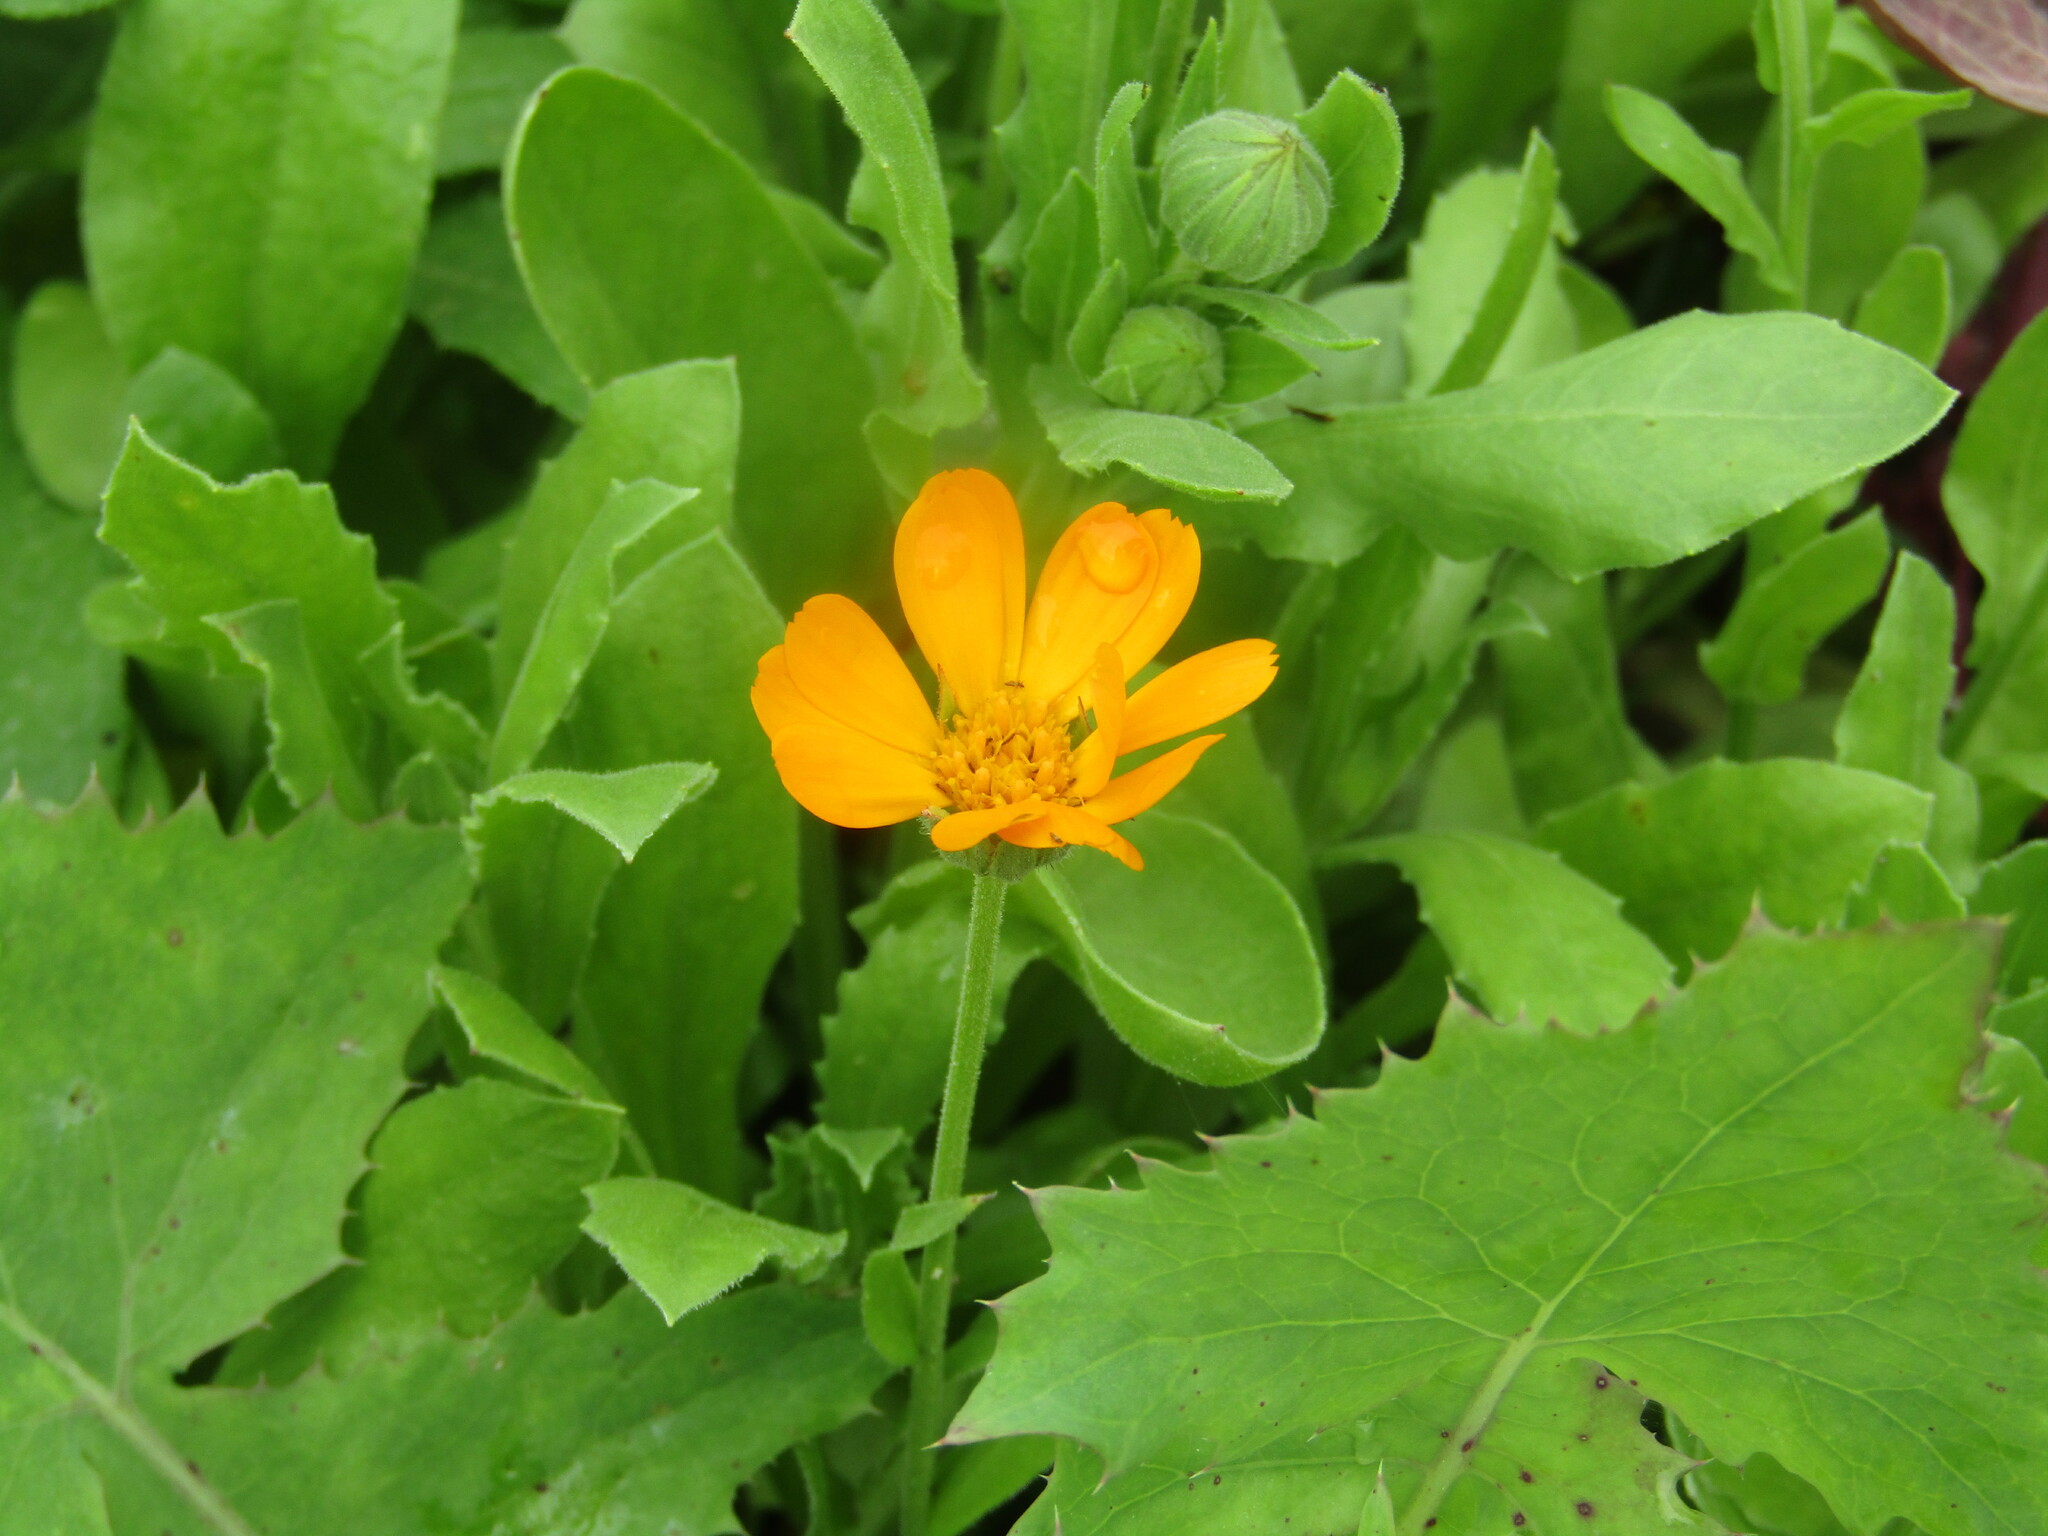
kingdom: Plantae
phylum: Tracheophyta
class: Magnoliopsida
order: Asterales
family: Asteraceae
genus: Calendula
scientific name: Calendula officinalis
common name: Pot marigold
